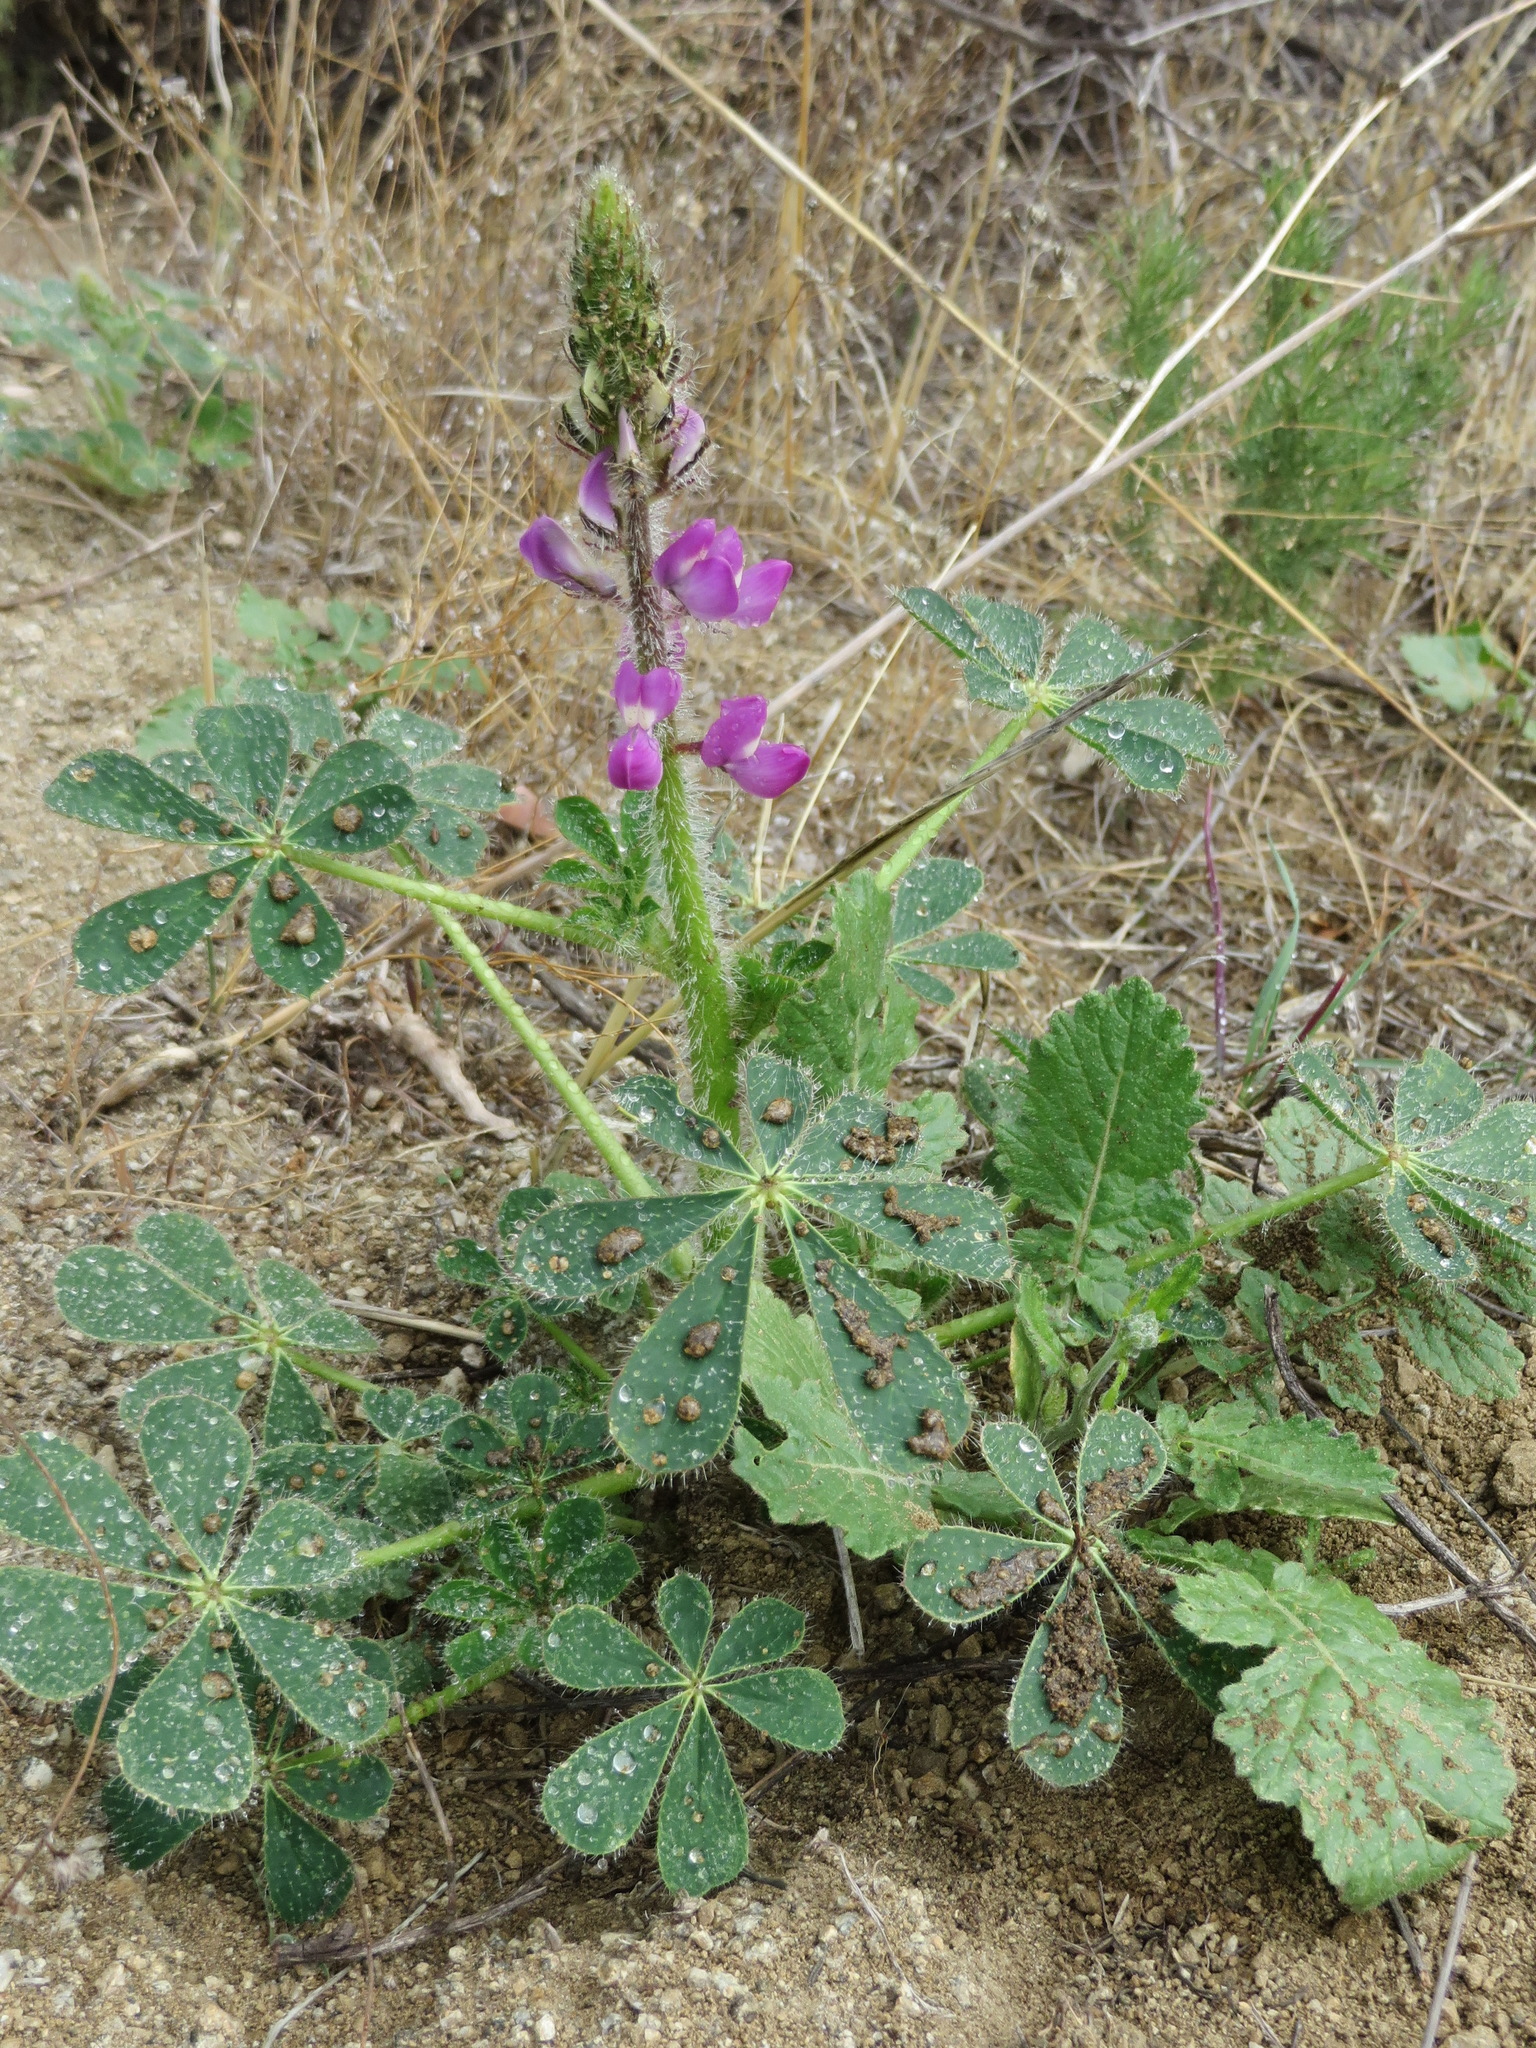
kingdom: Plantae
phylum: Tracheophyta
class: Magnoliopsida
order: Fabales
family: Fabaceae
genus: Lupinus
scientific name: Lupinus hirsutissimus
